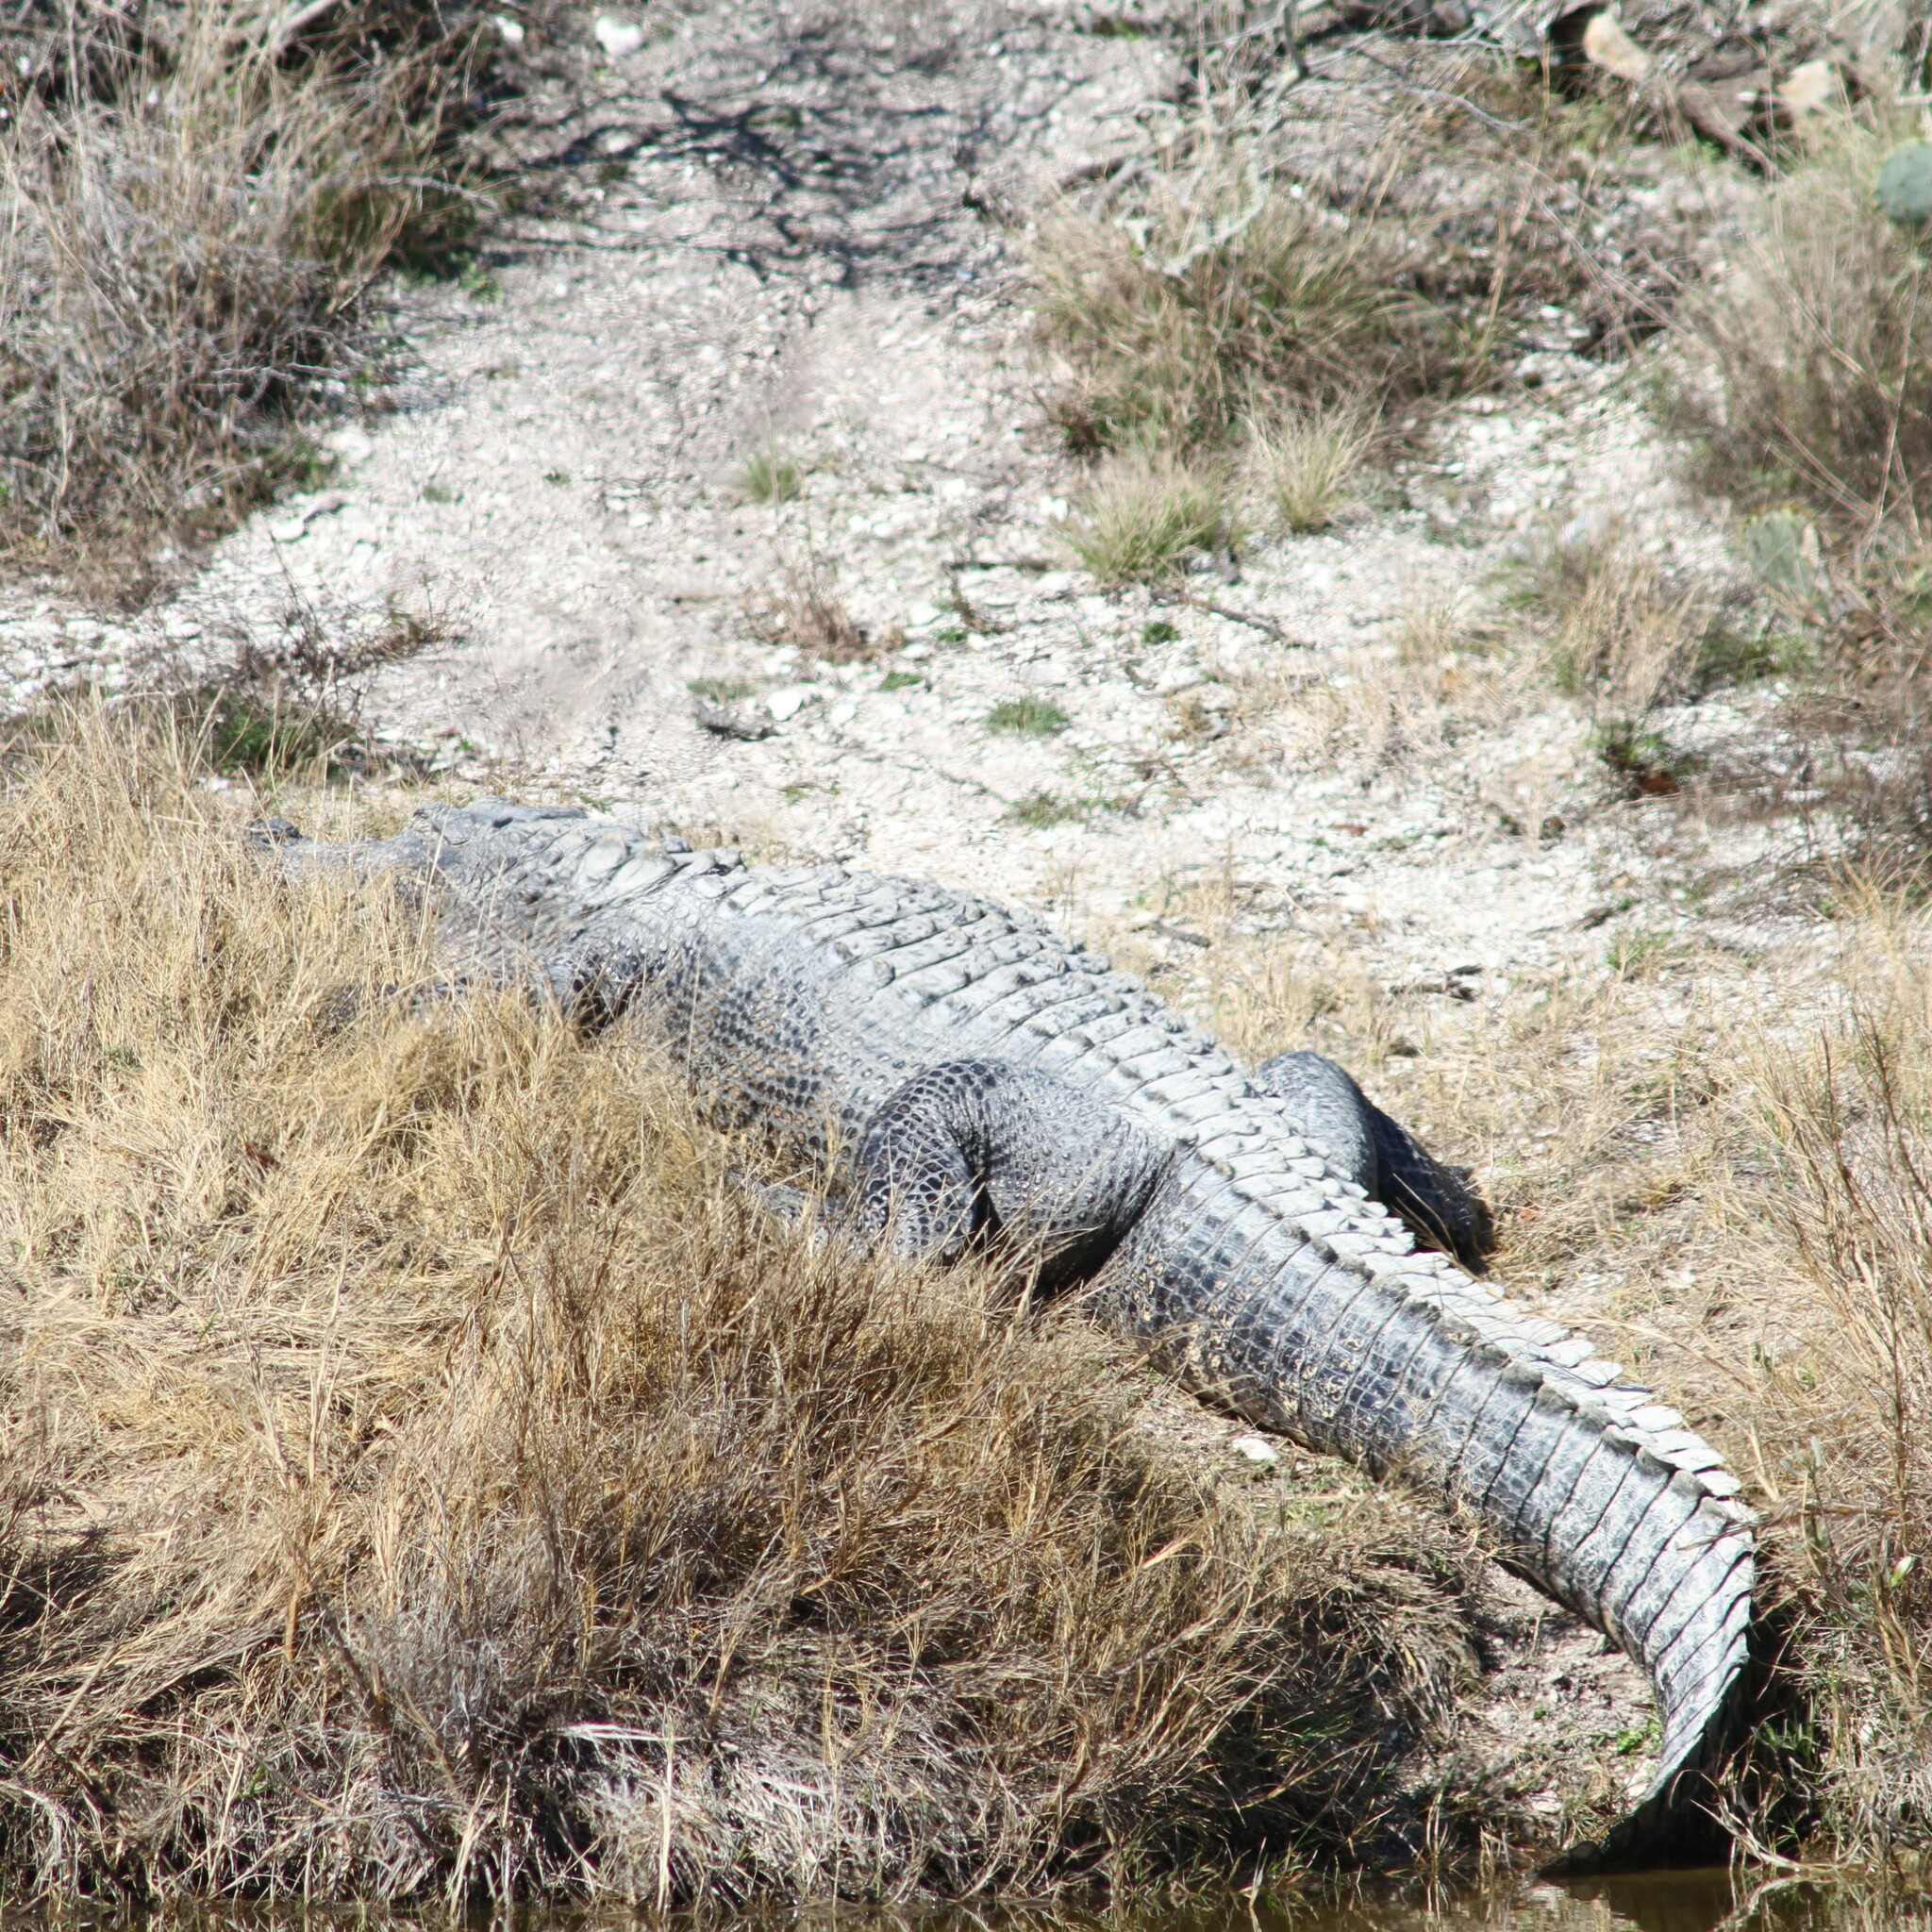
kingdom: Animalia
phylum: Chordata
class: Crocodylia
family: Alligatoridae
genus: Alligator
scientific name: Alligator mississippiensis
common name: American alligator
